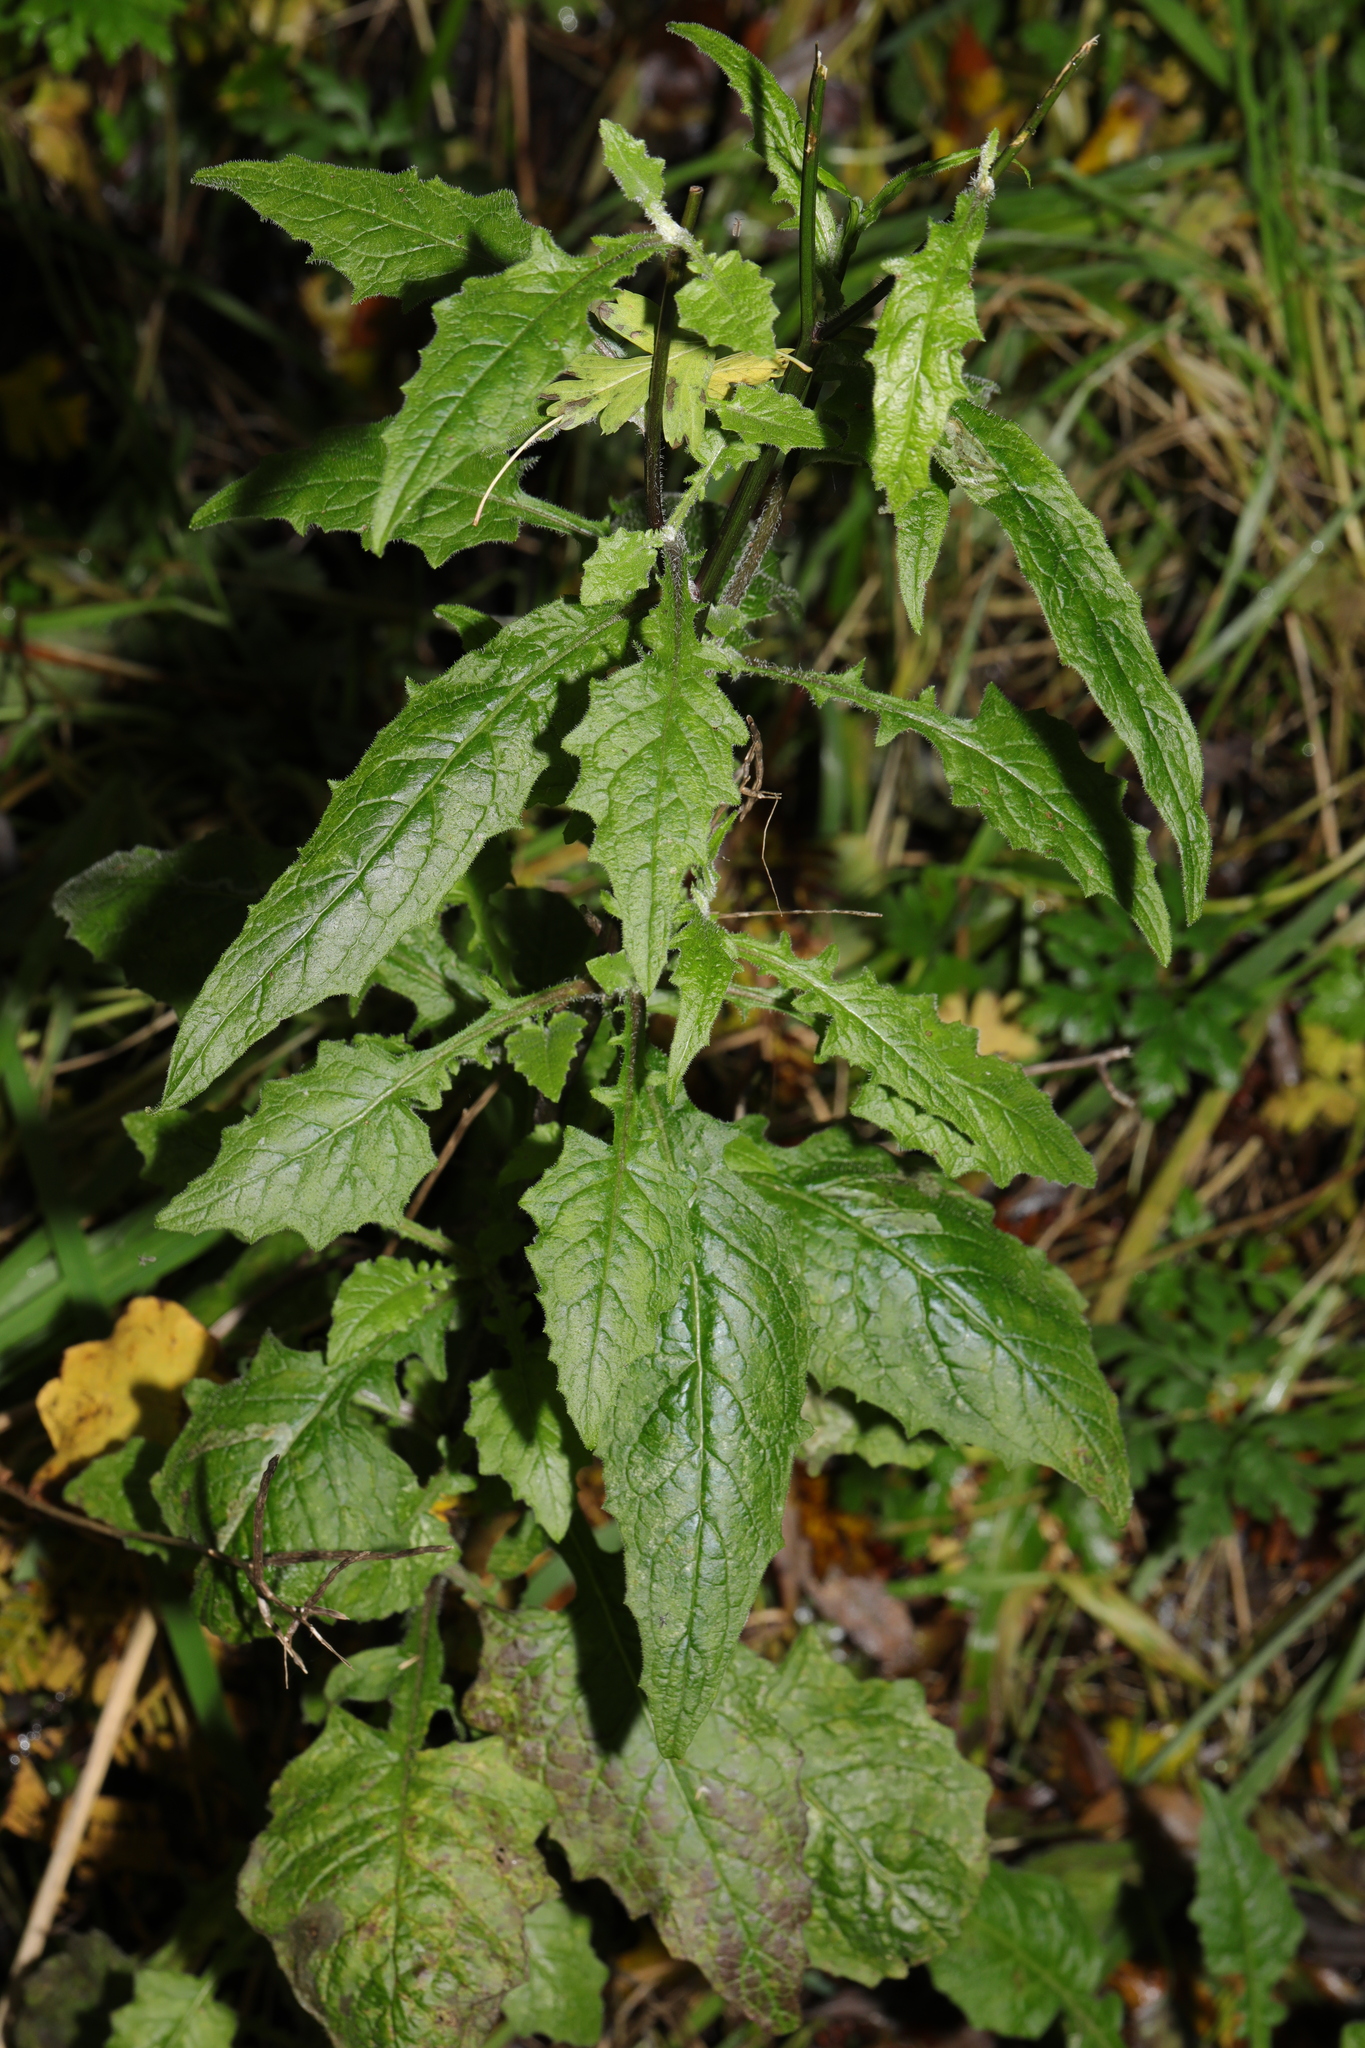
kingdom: Plantae
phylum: Tracheophyta
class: Magnoliopsida
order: Asterales
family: Asteraceae
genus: Lapsana
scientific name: Lapsana communis
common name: Nipplewort
